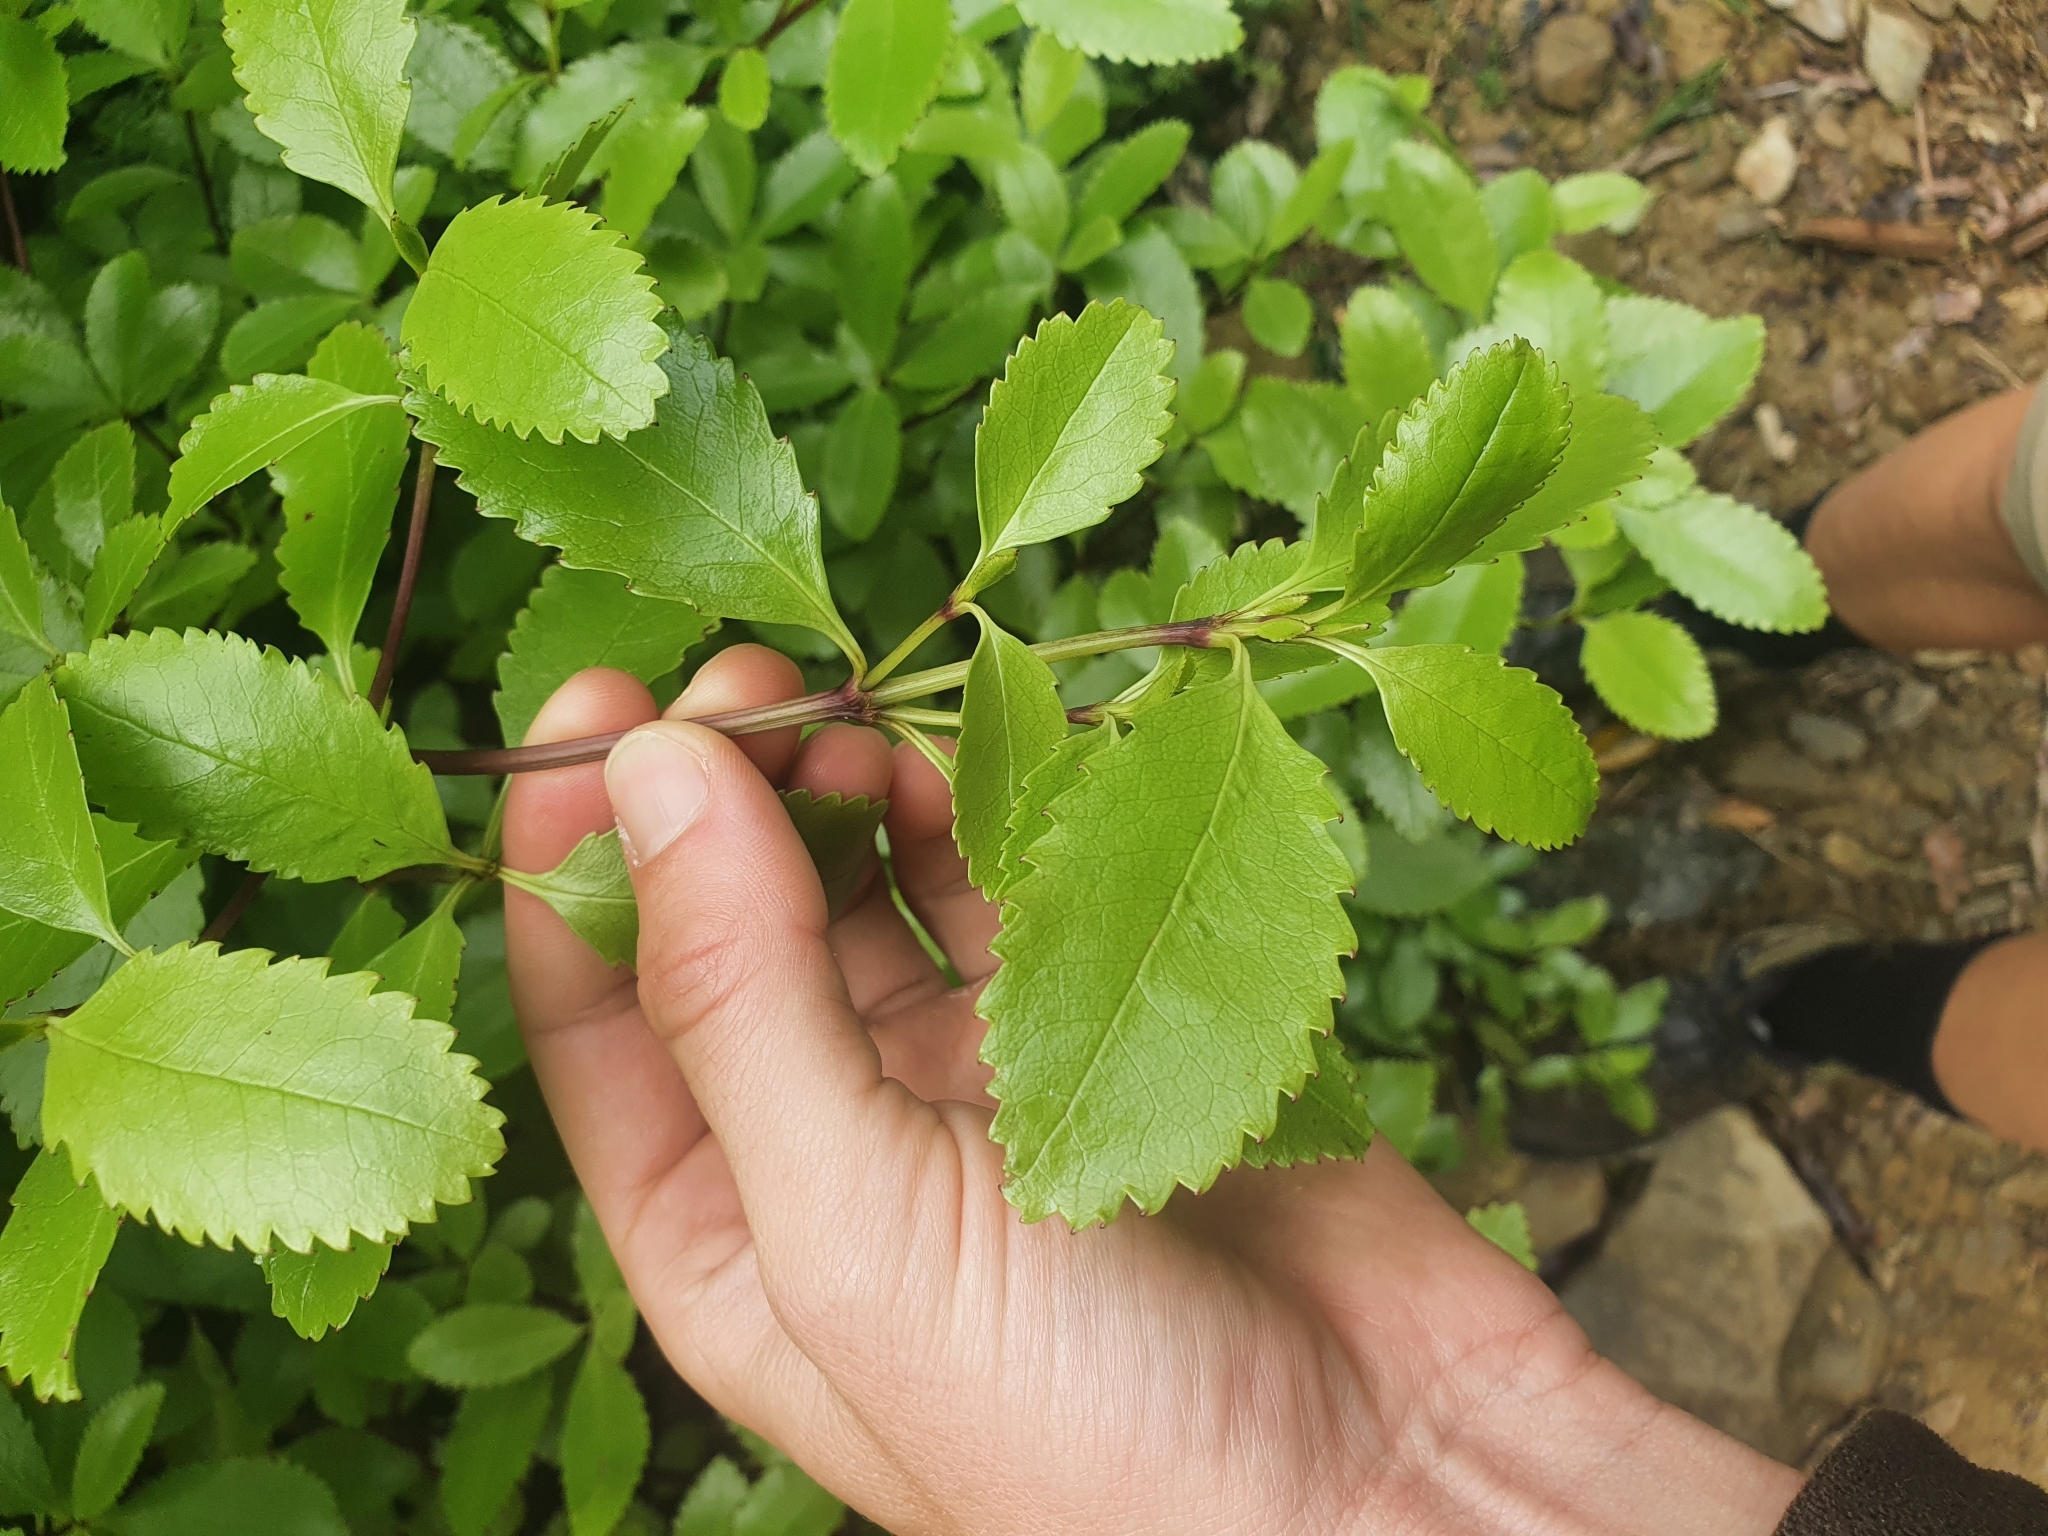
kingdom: Plantae
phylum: Tracheophyta
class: Magnoliopsida
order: Chloranthales
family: Chloranthaceae
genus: Ascarina
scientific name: Ascarina lucida
